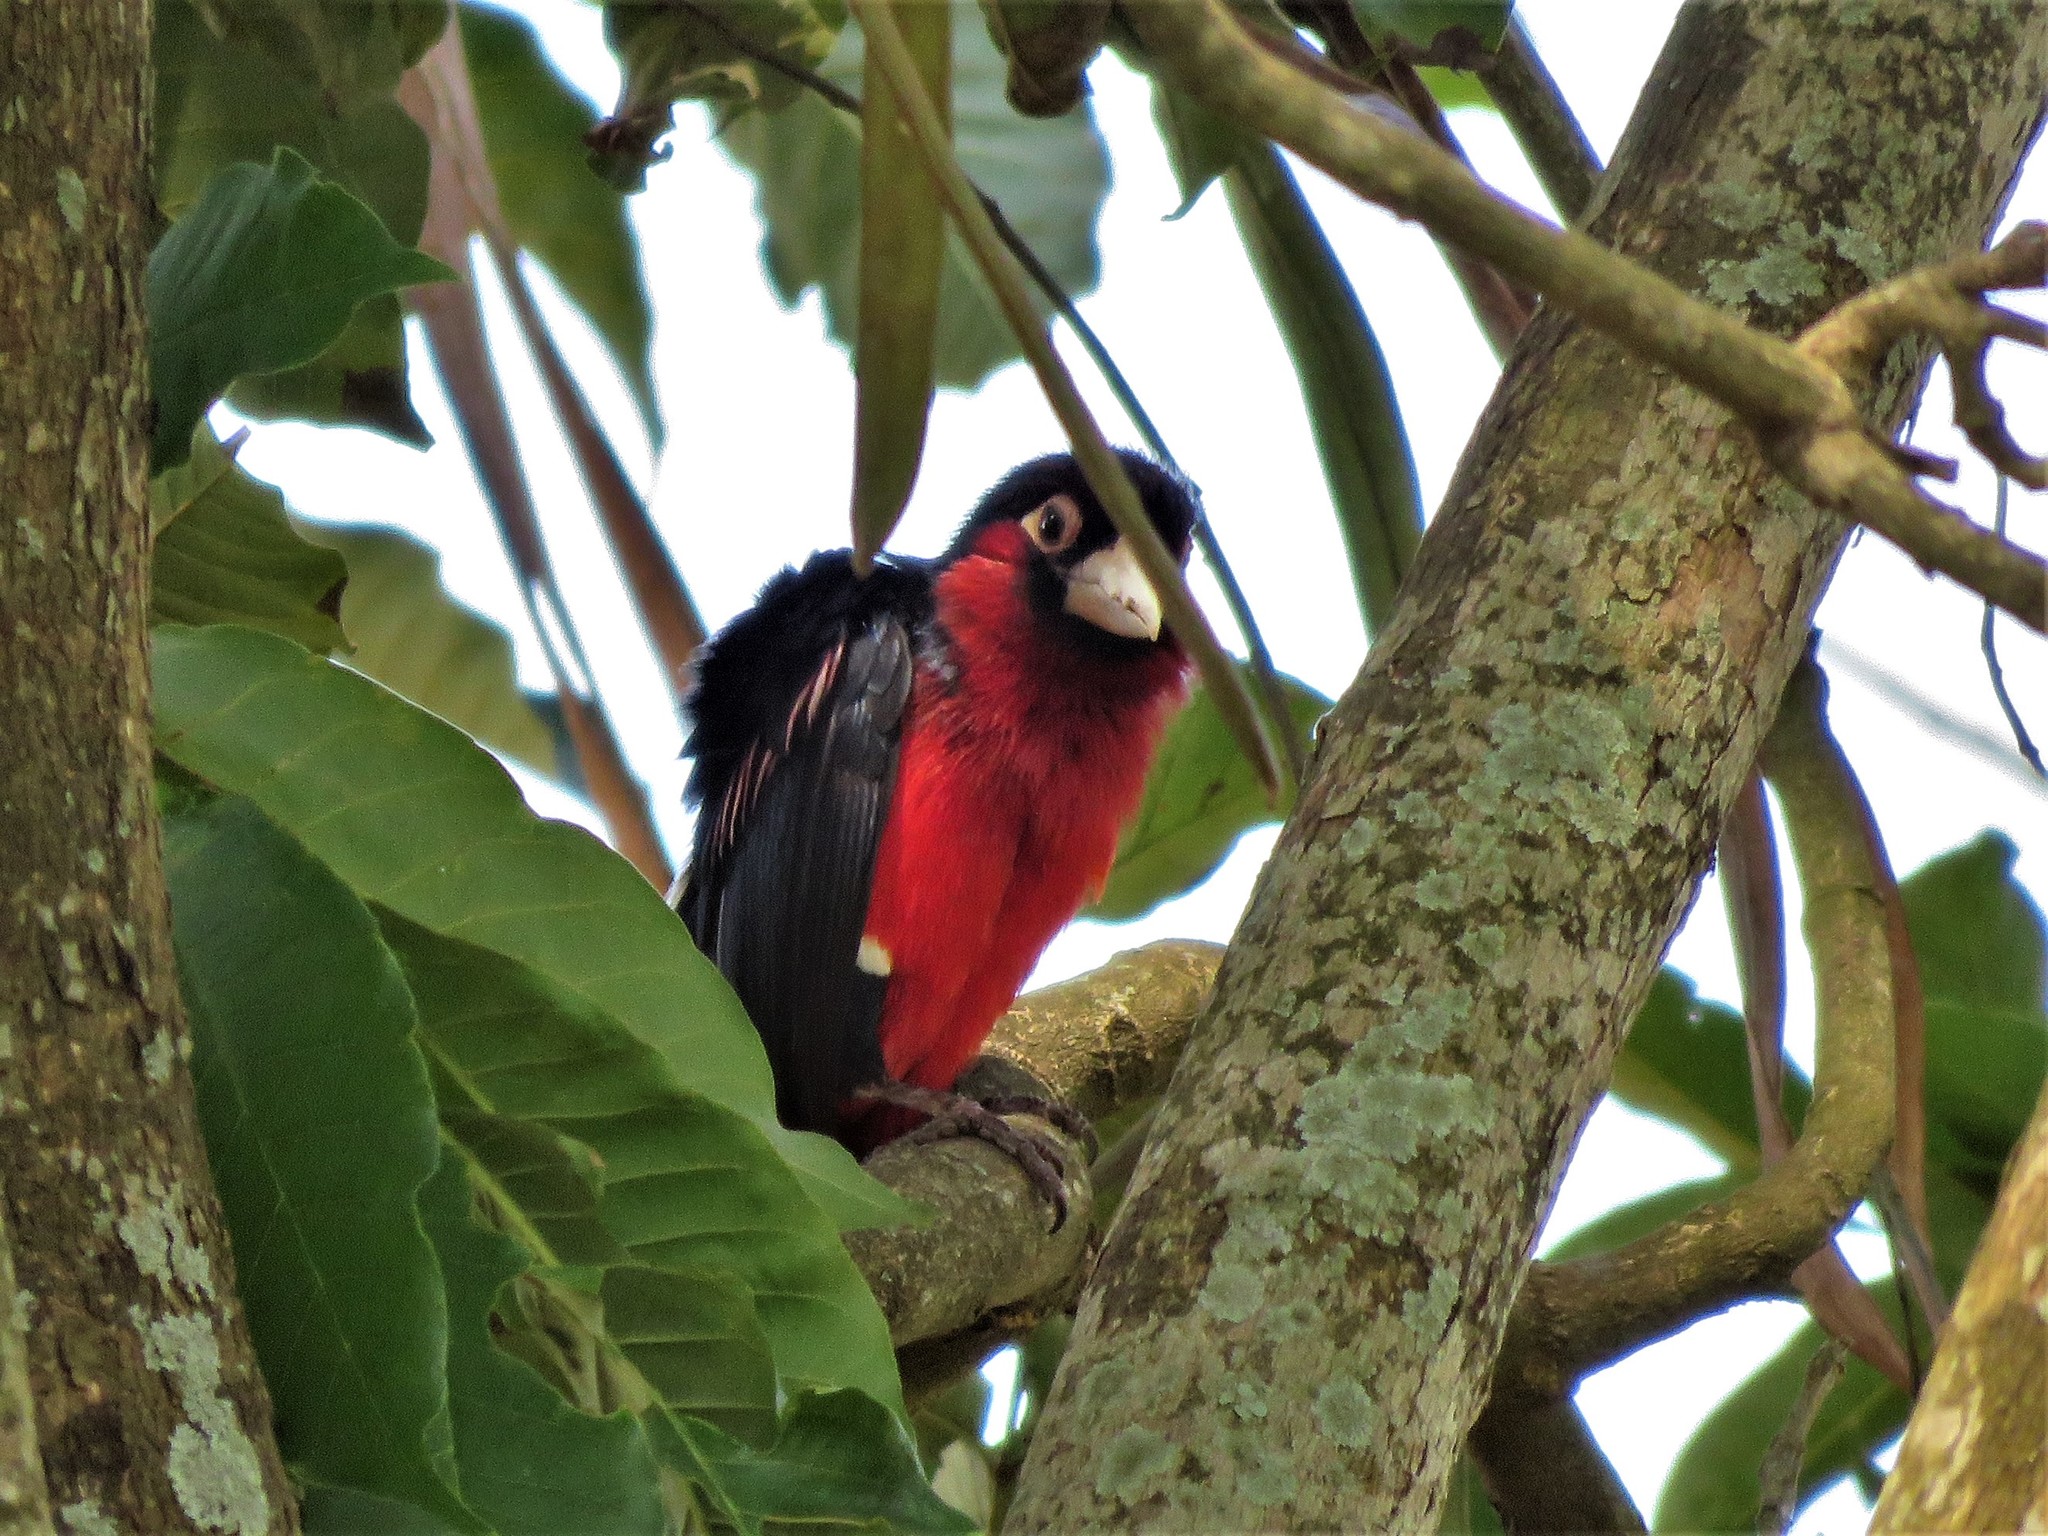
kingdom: Animalia
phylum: Chordata
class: Aves
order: Piciformes
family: Lybiidae
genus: Lybius
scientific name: Lybius bidentatus
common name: Double-toothed barbet
